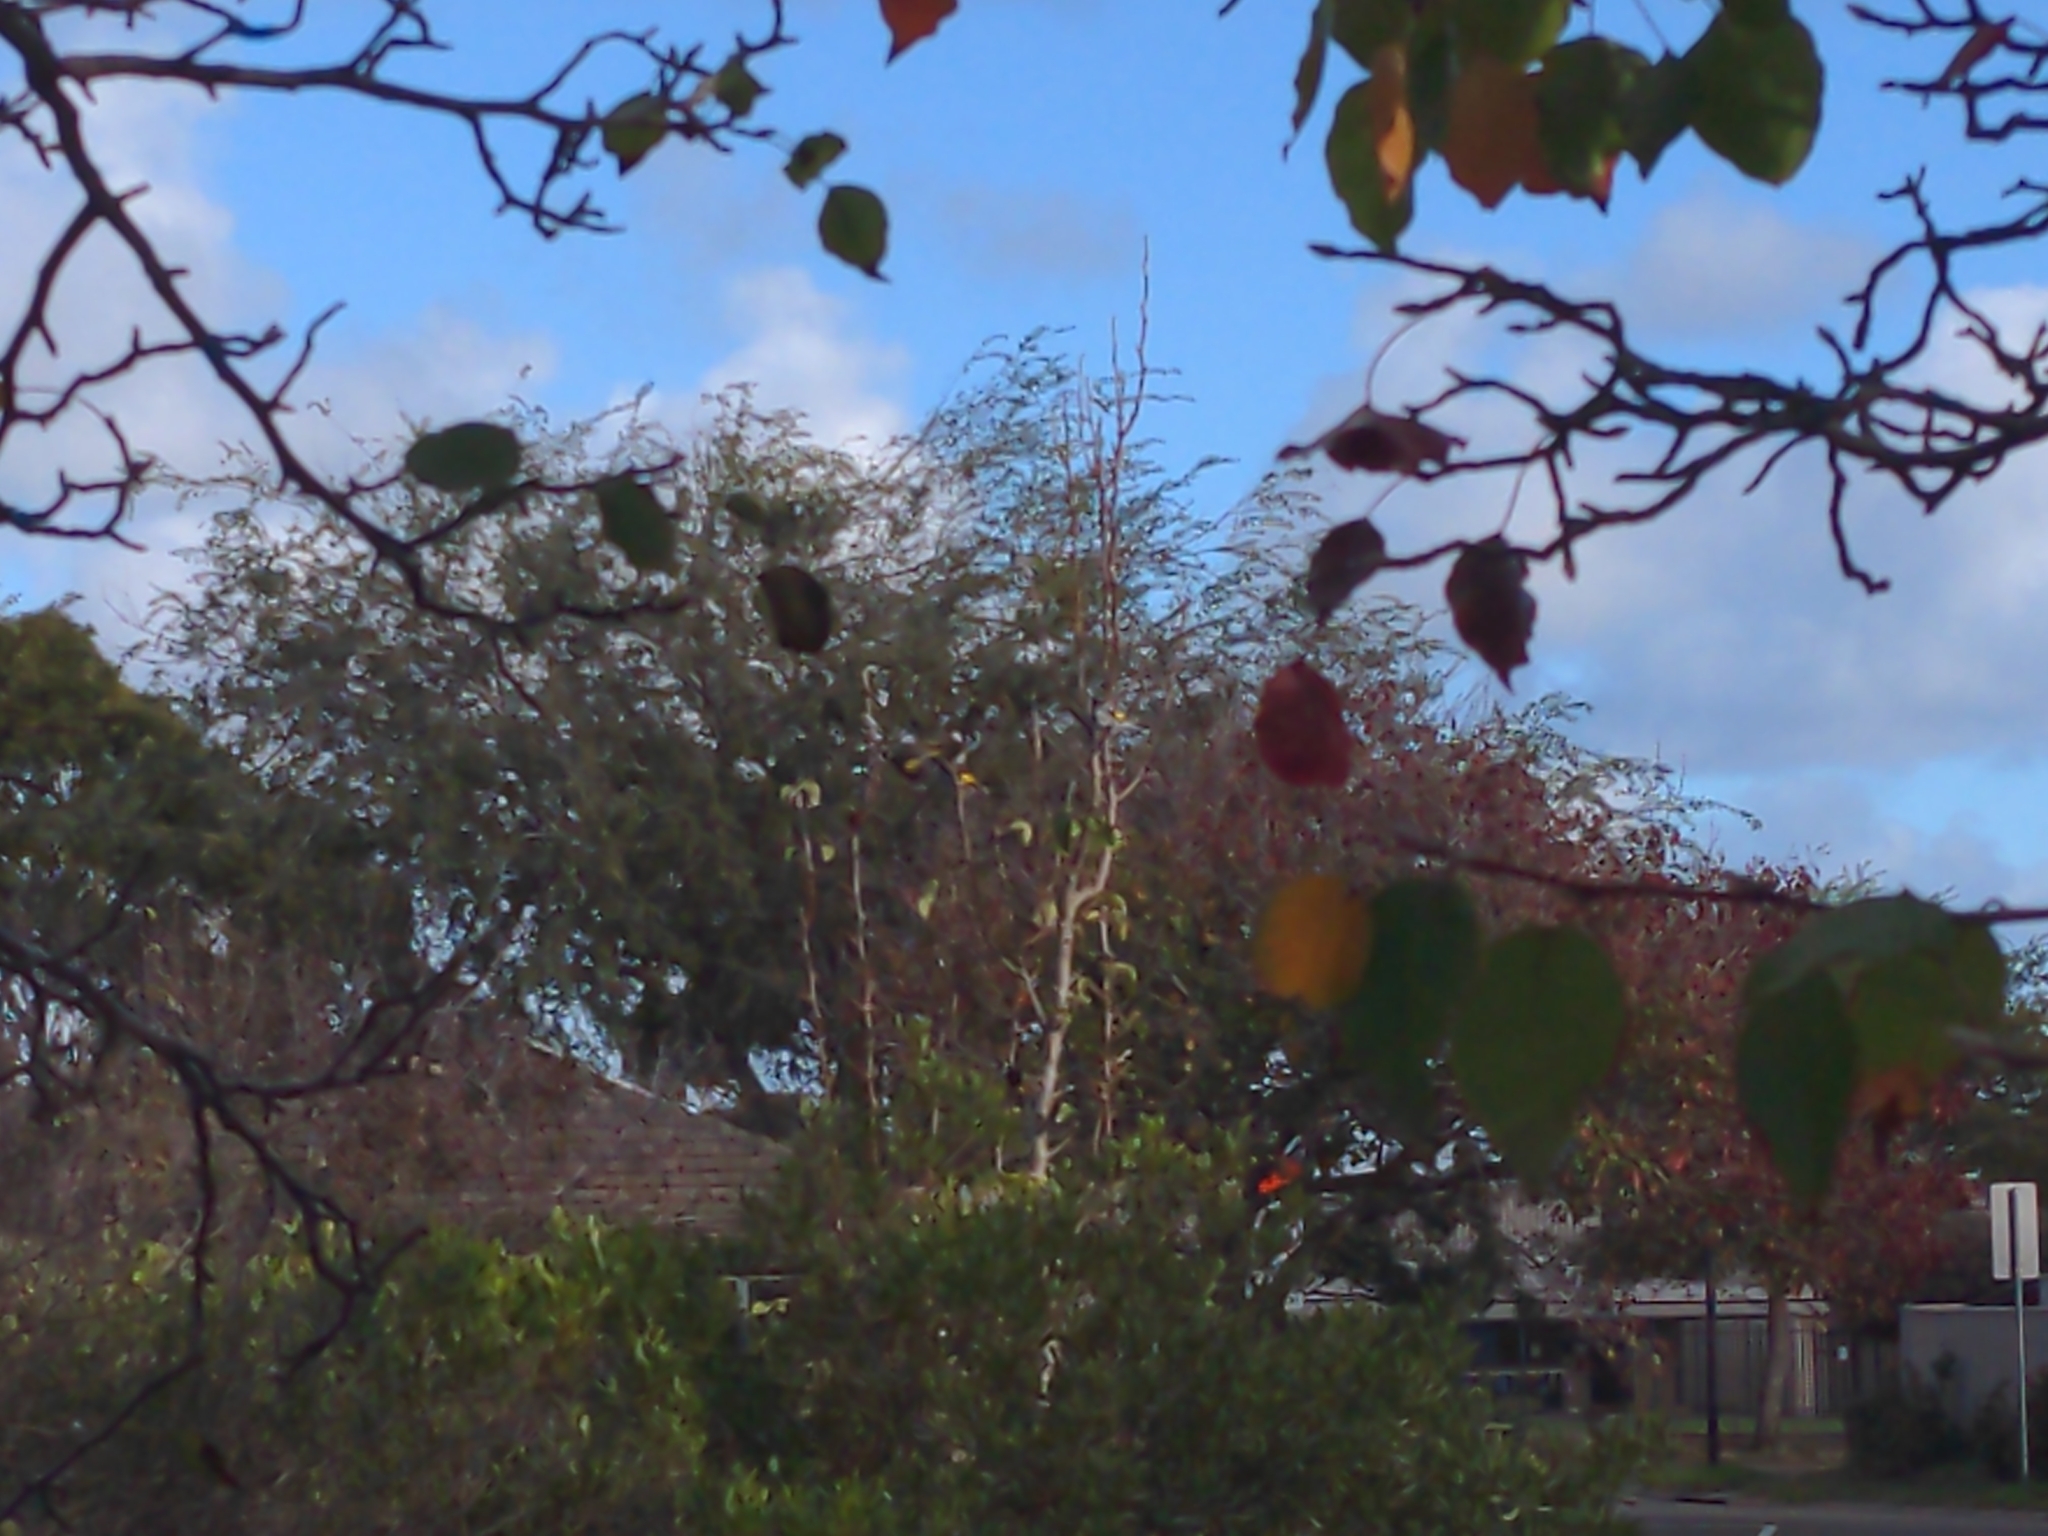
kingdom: Animalia
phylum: Chordata
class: Aves
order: Passeriformes
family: Meliphagidae
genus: Phylidonyris
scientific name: Phylidonyris novaehollandiae
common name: New holland honeyeater
